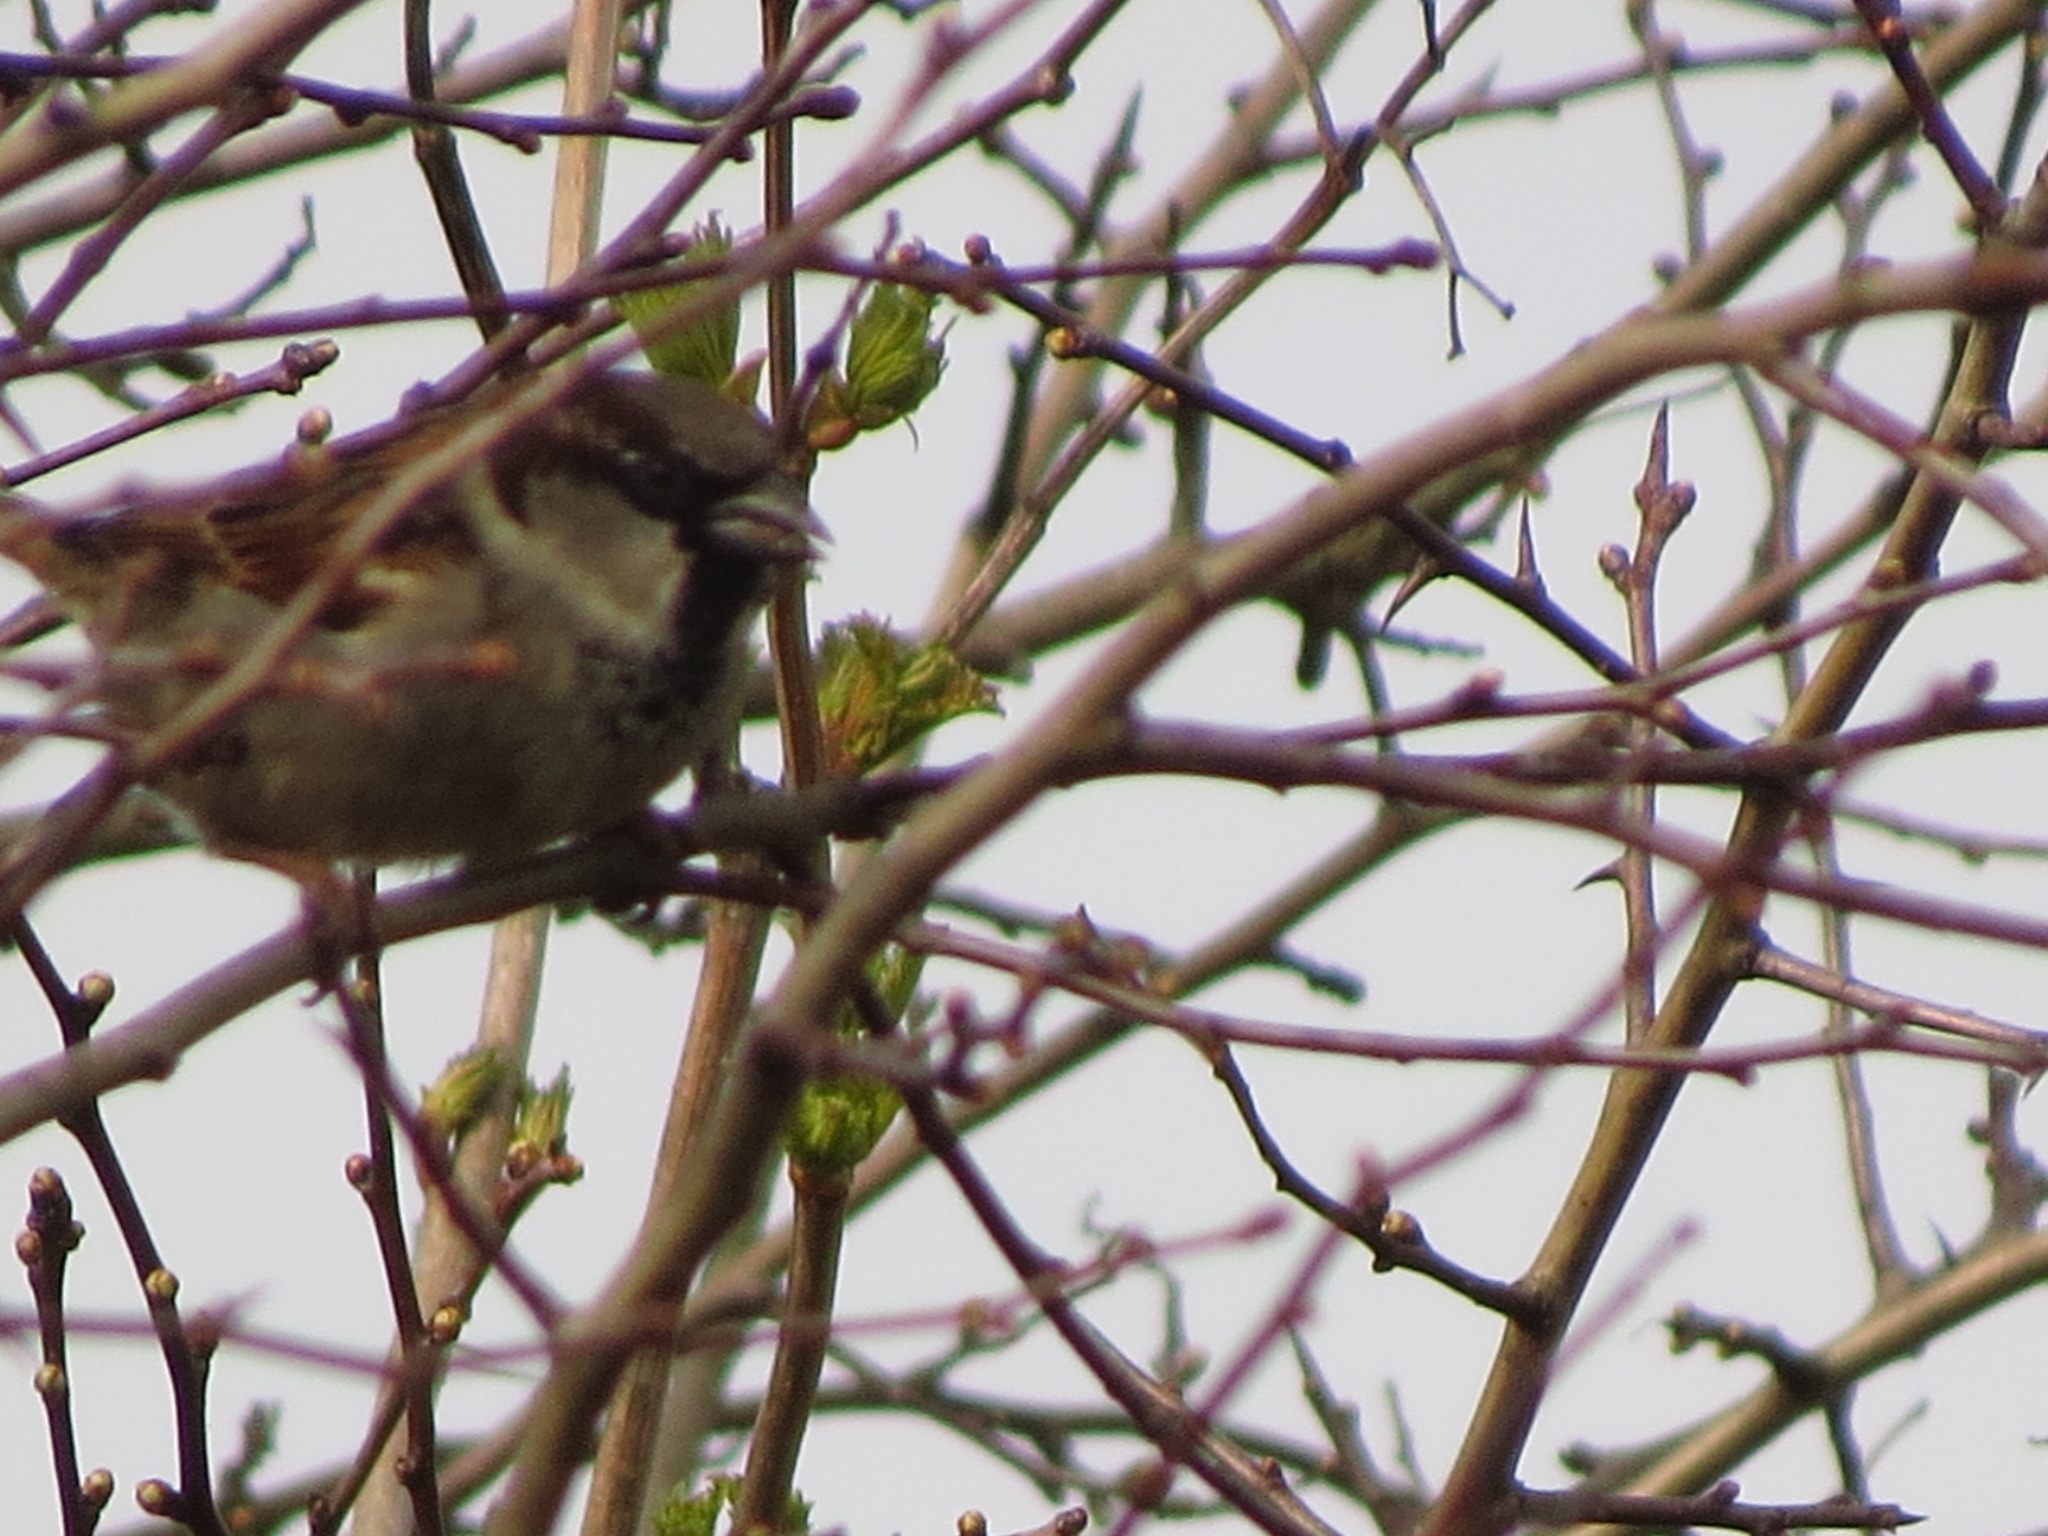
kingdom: Animalia
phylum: Chordata
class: Aves
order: Passeriformes
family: Passeridae
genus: Passer
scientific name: Passer domesticus
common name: House sparrow
